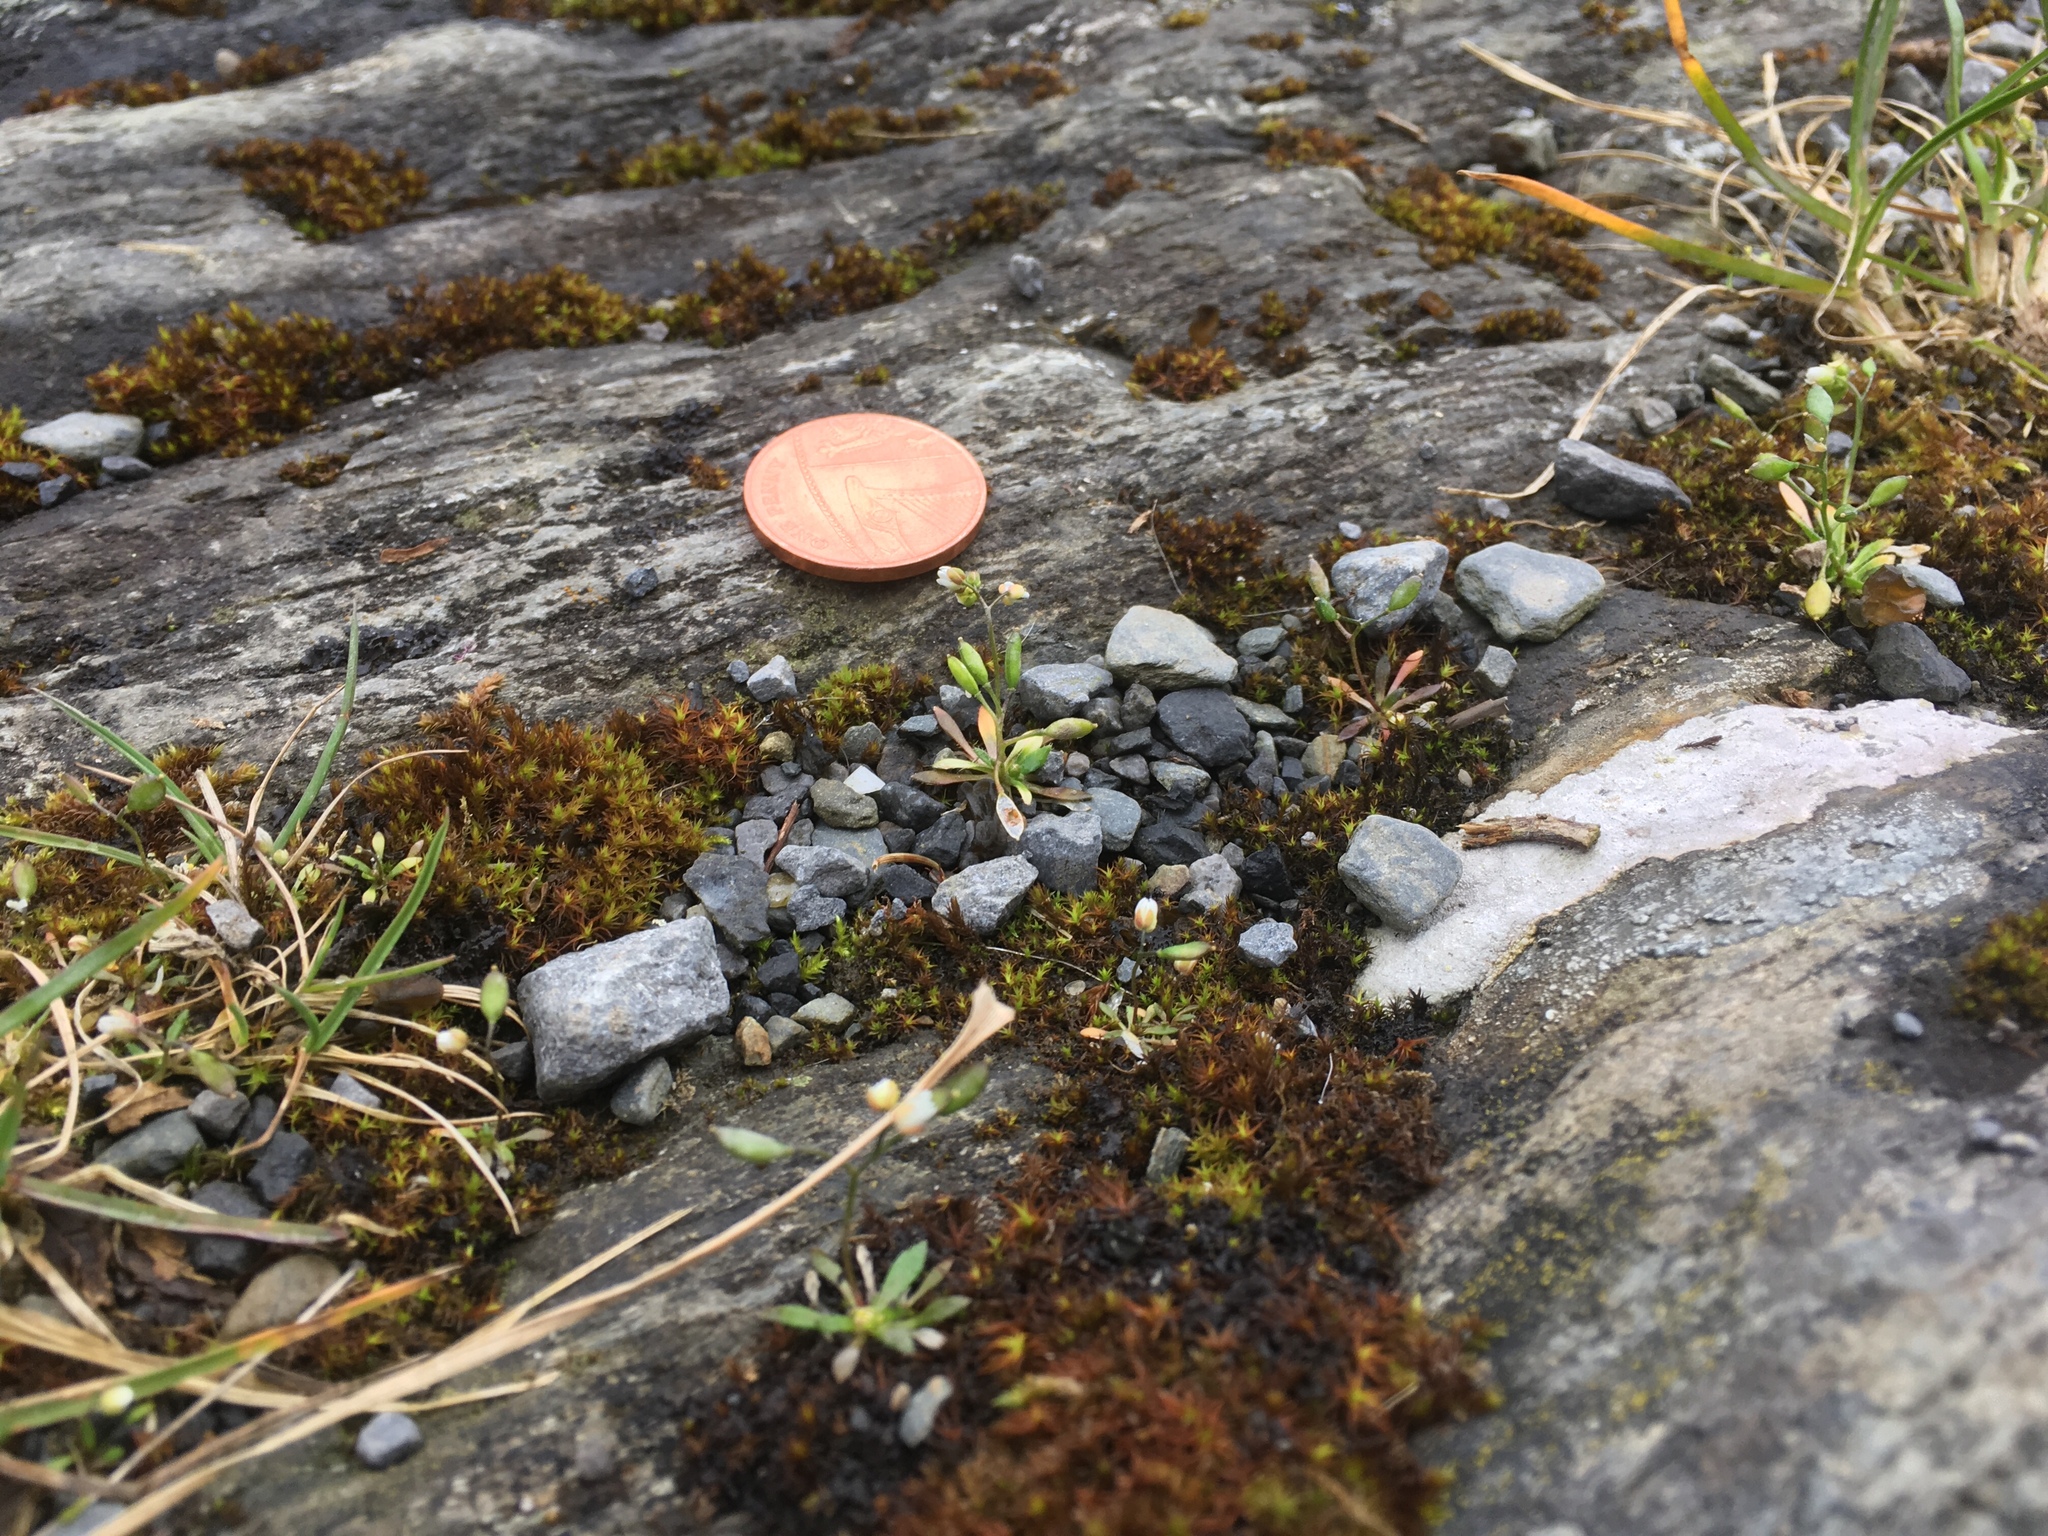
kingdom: Plantae
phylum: Tracheophyta
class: Magnoliopsida
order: Brassicales
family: Brassicaceae
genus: Draba
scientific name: Draba verna
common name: Spring draba
